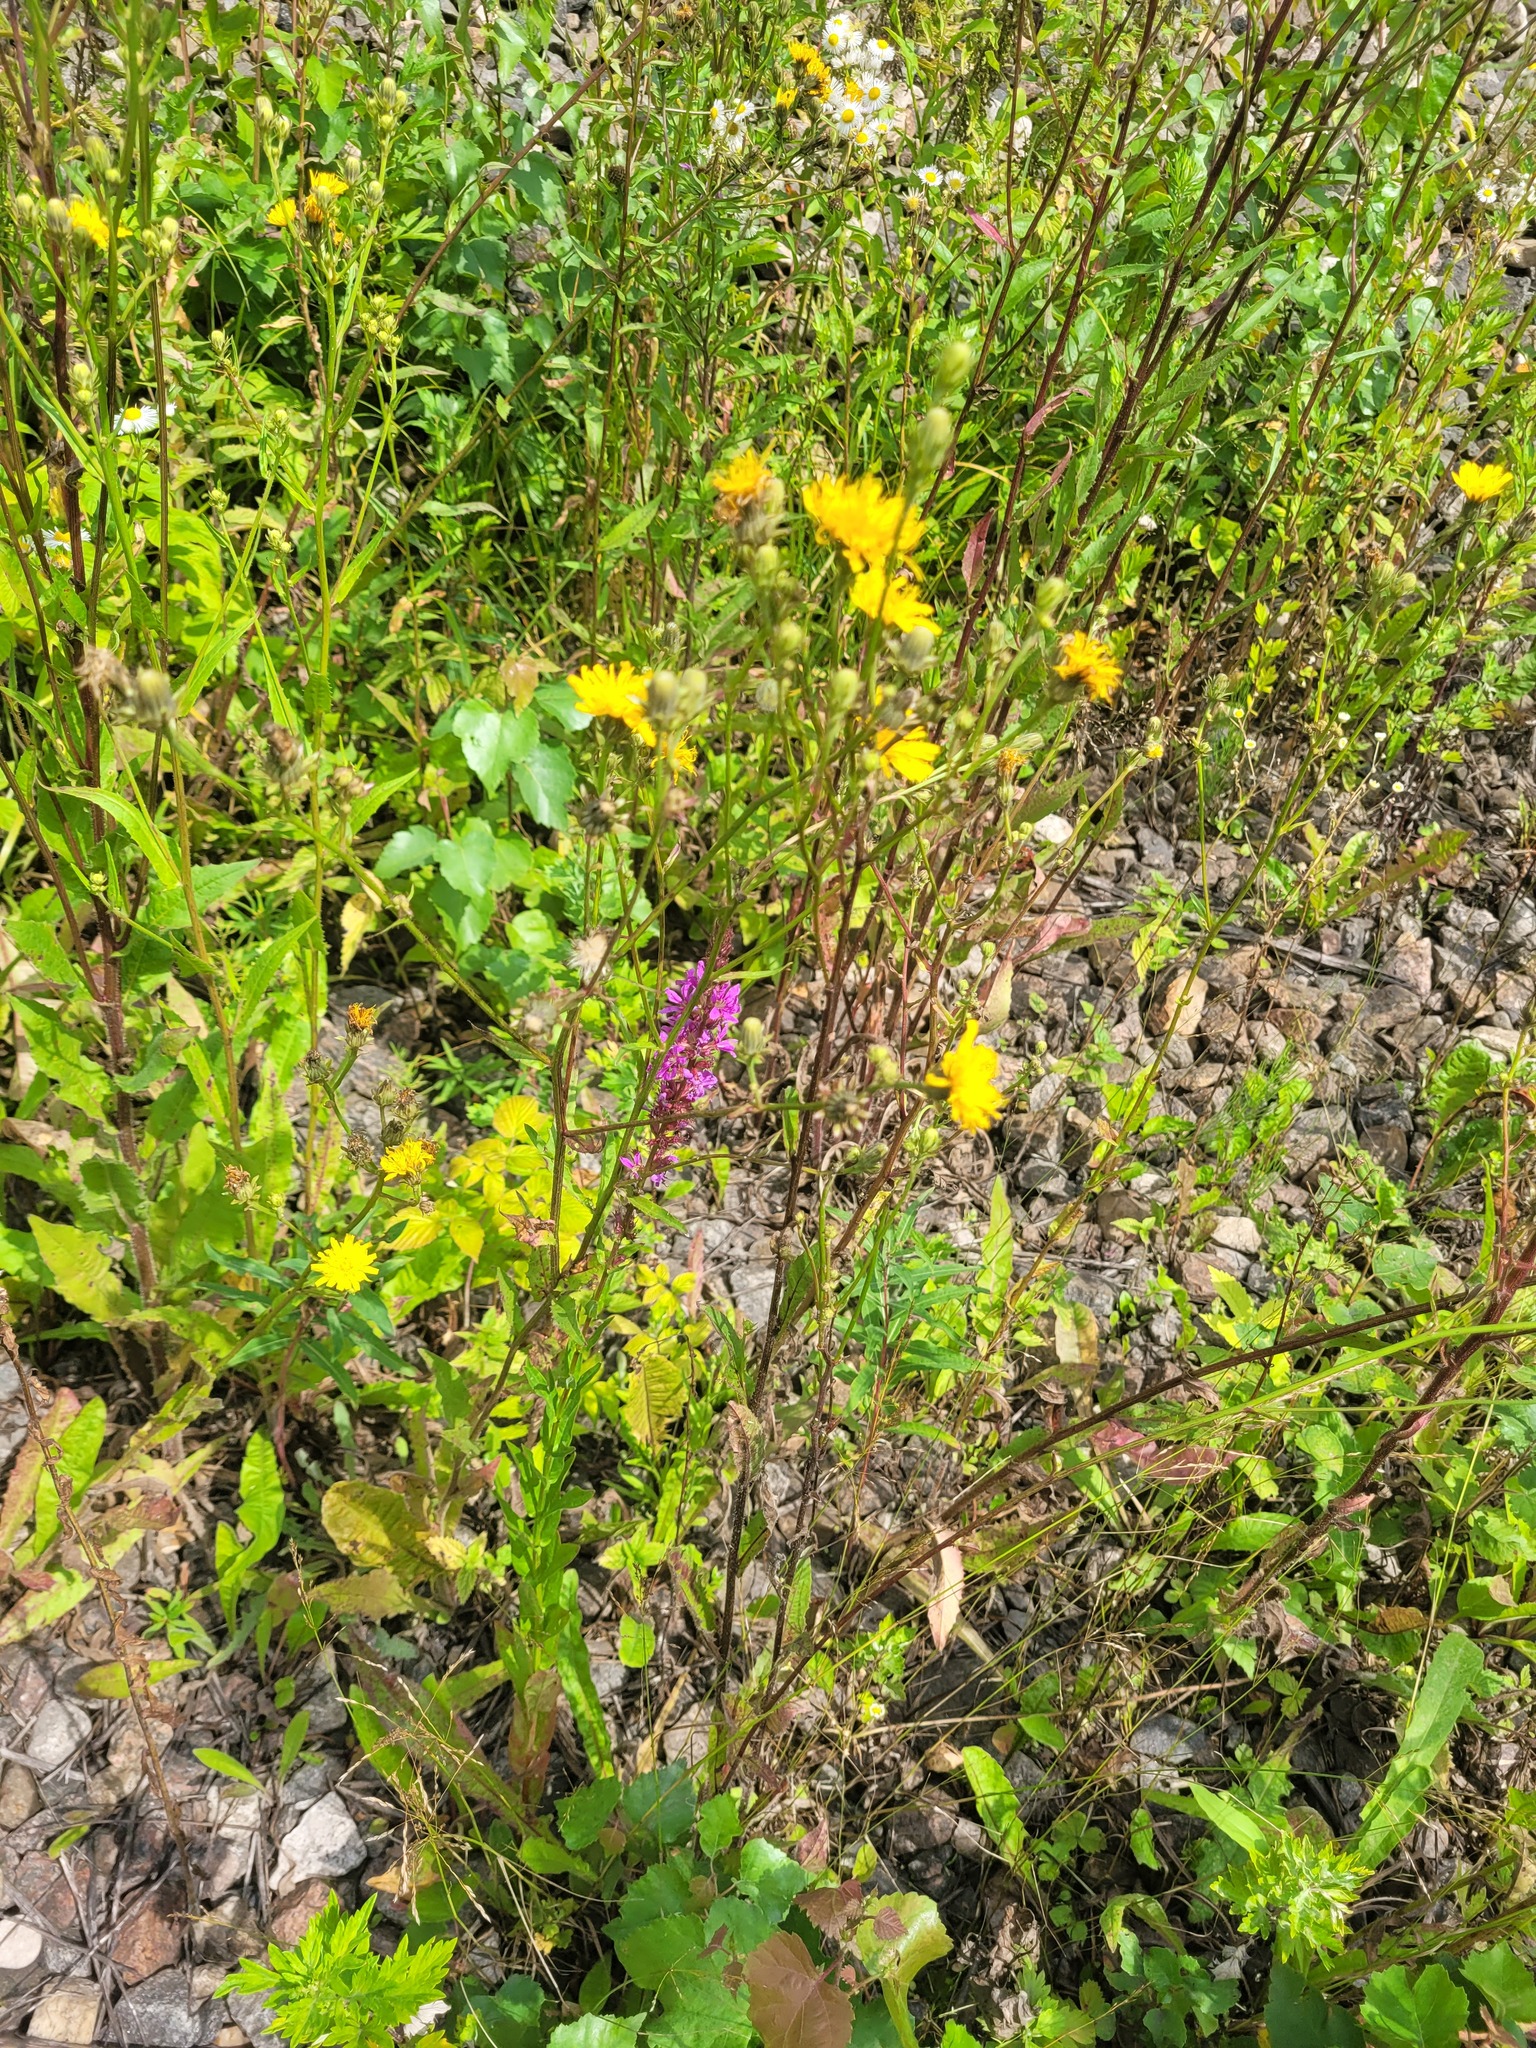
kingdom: Plantae
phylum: Tracheophyta
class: Magnoliopsida
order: Asterales
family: Asteraceae
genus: Picris
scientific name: Picris hieracioides
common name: Hawkweed oxtongue
